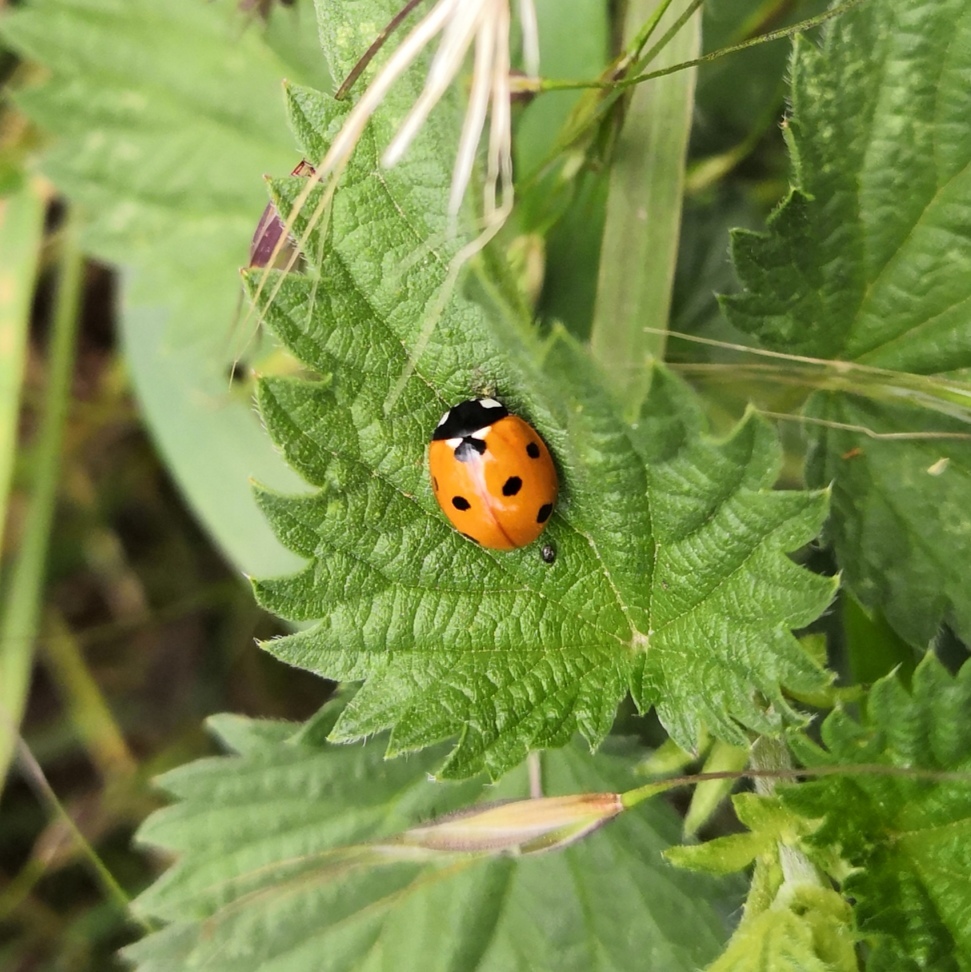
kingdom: Animalia
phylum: Arthropoda
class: Insecta
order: Coleoptera
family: Coccinellidae
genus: Coccinella
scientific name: Coccinella septempunctata
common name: Sevenspotted lady beetle
